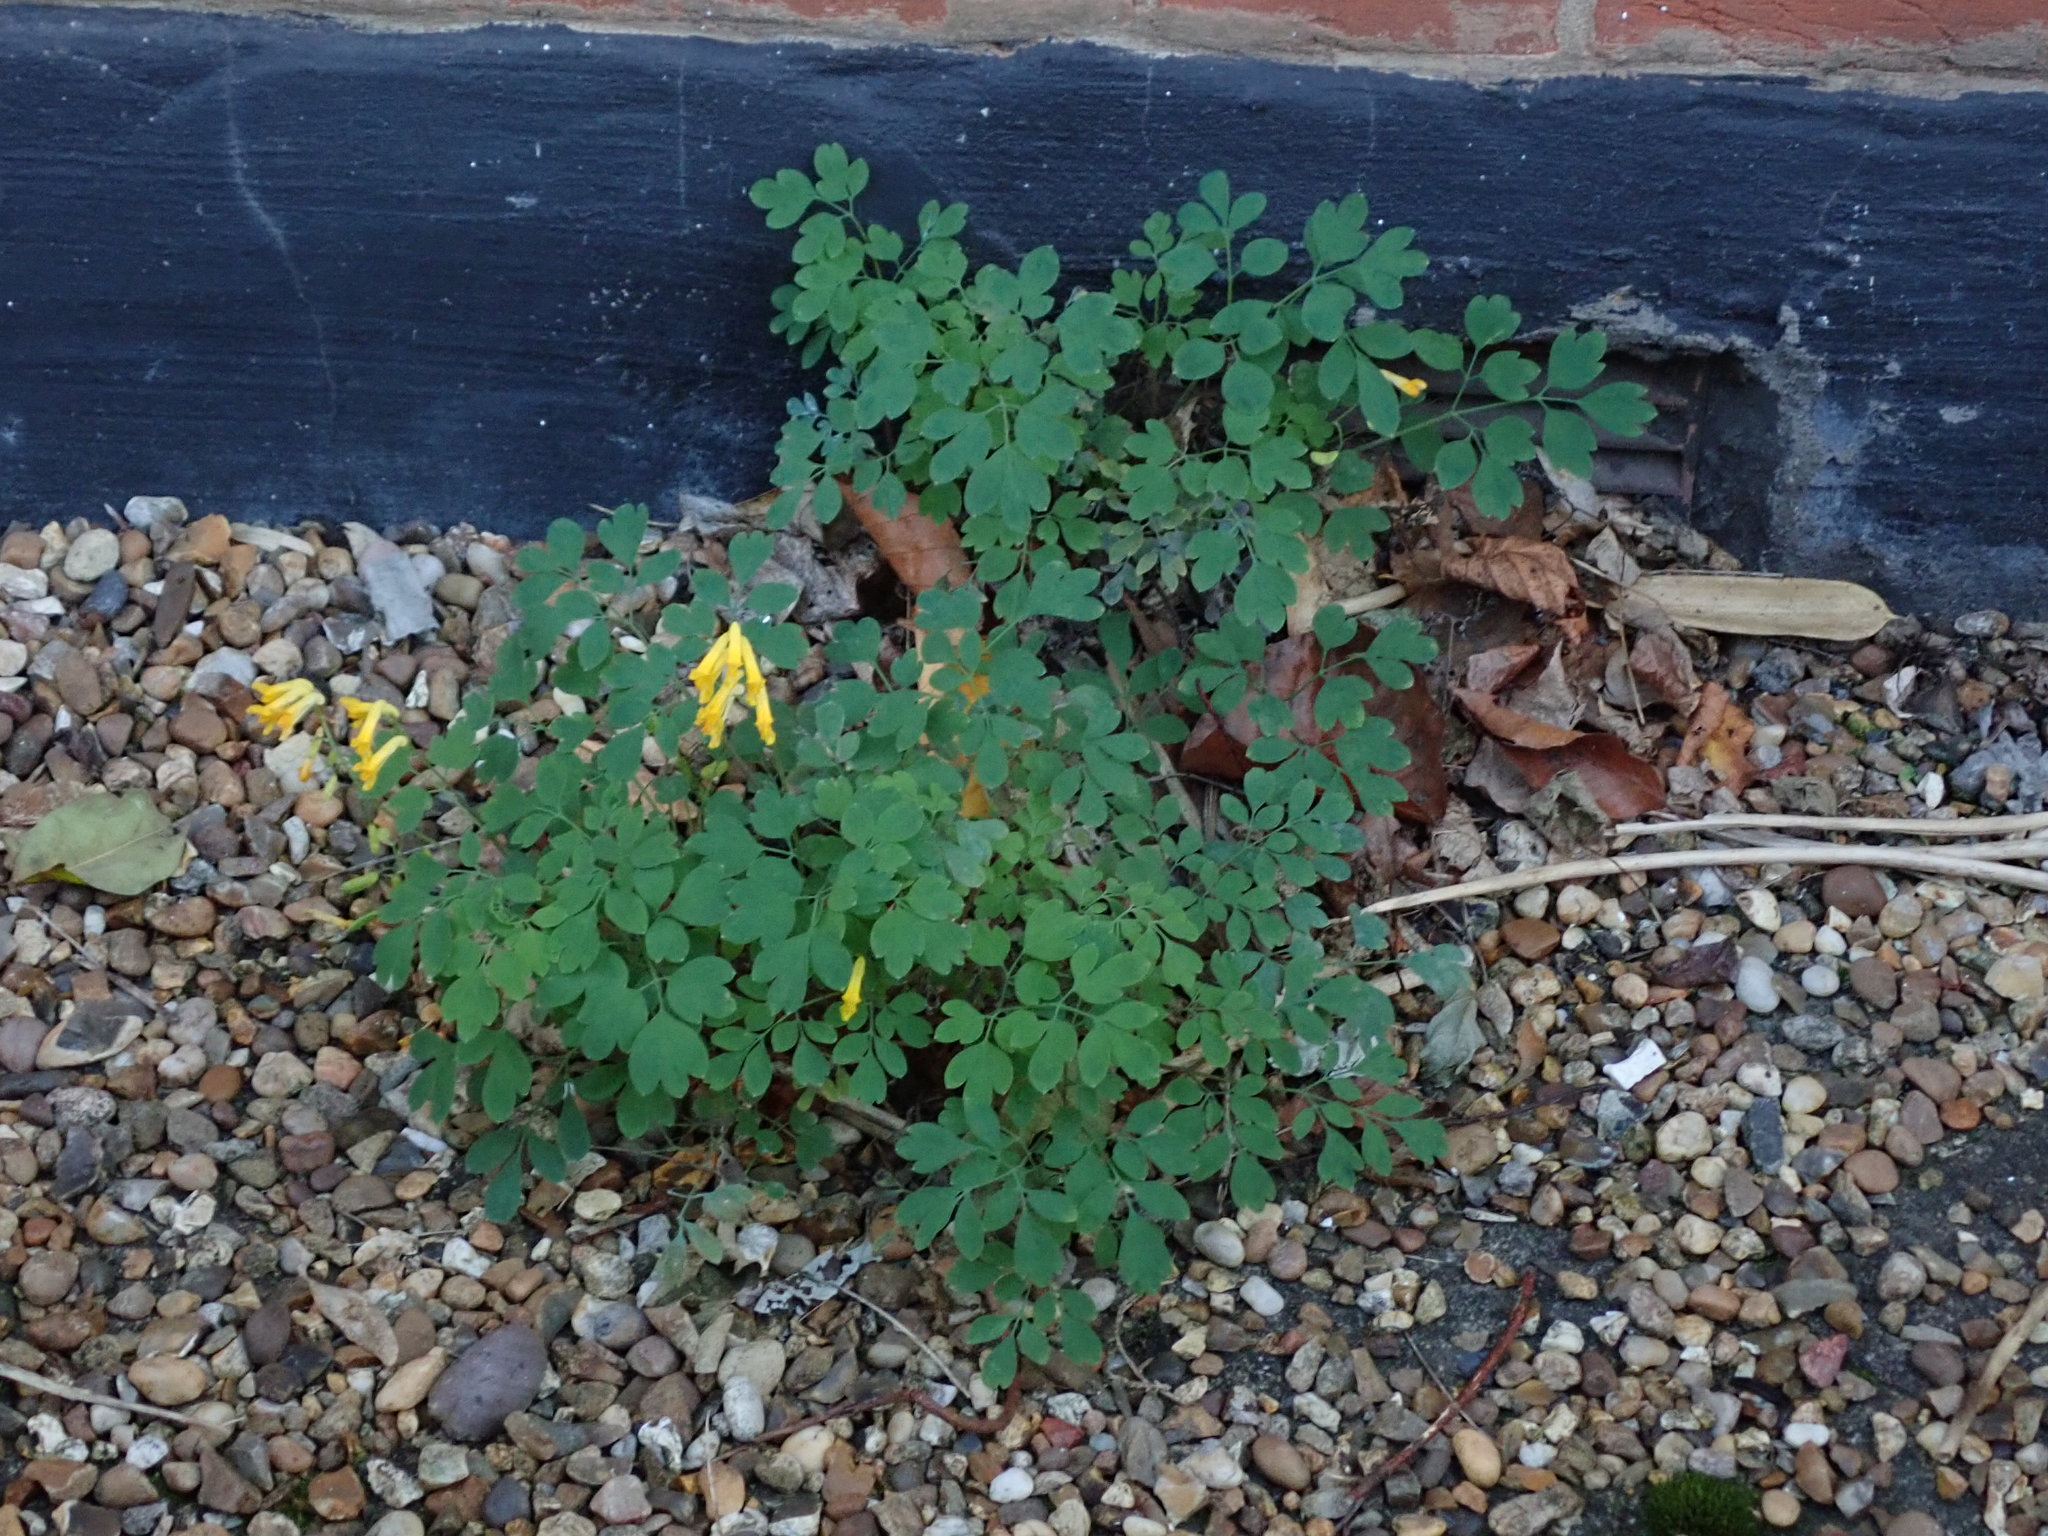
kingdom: Plantae
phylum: Tracheophyta
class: Magnoliopsida
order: Ranunculales
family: Papaveraceae
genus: Pseudofumaria
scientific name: Pseudofumaria lutea
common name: Yellow corydalis
